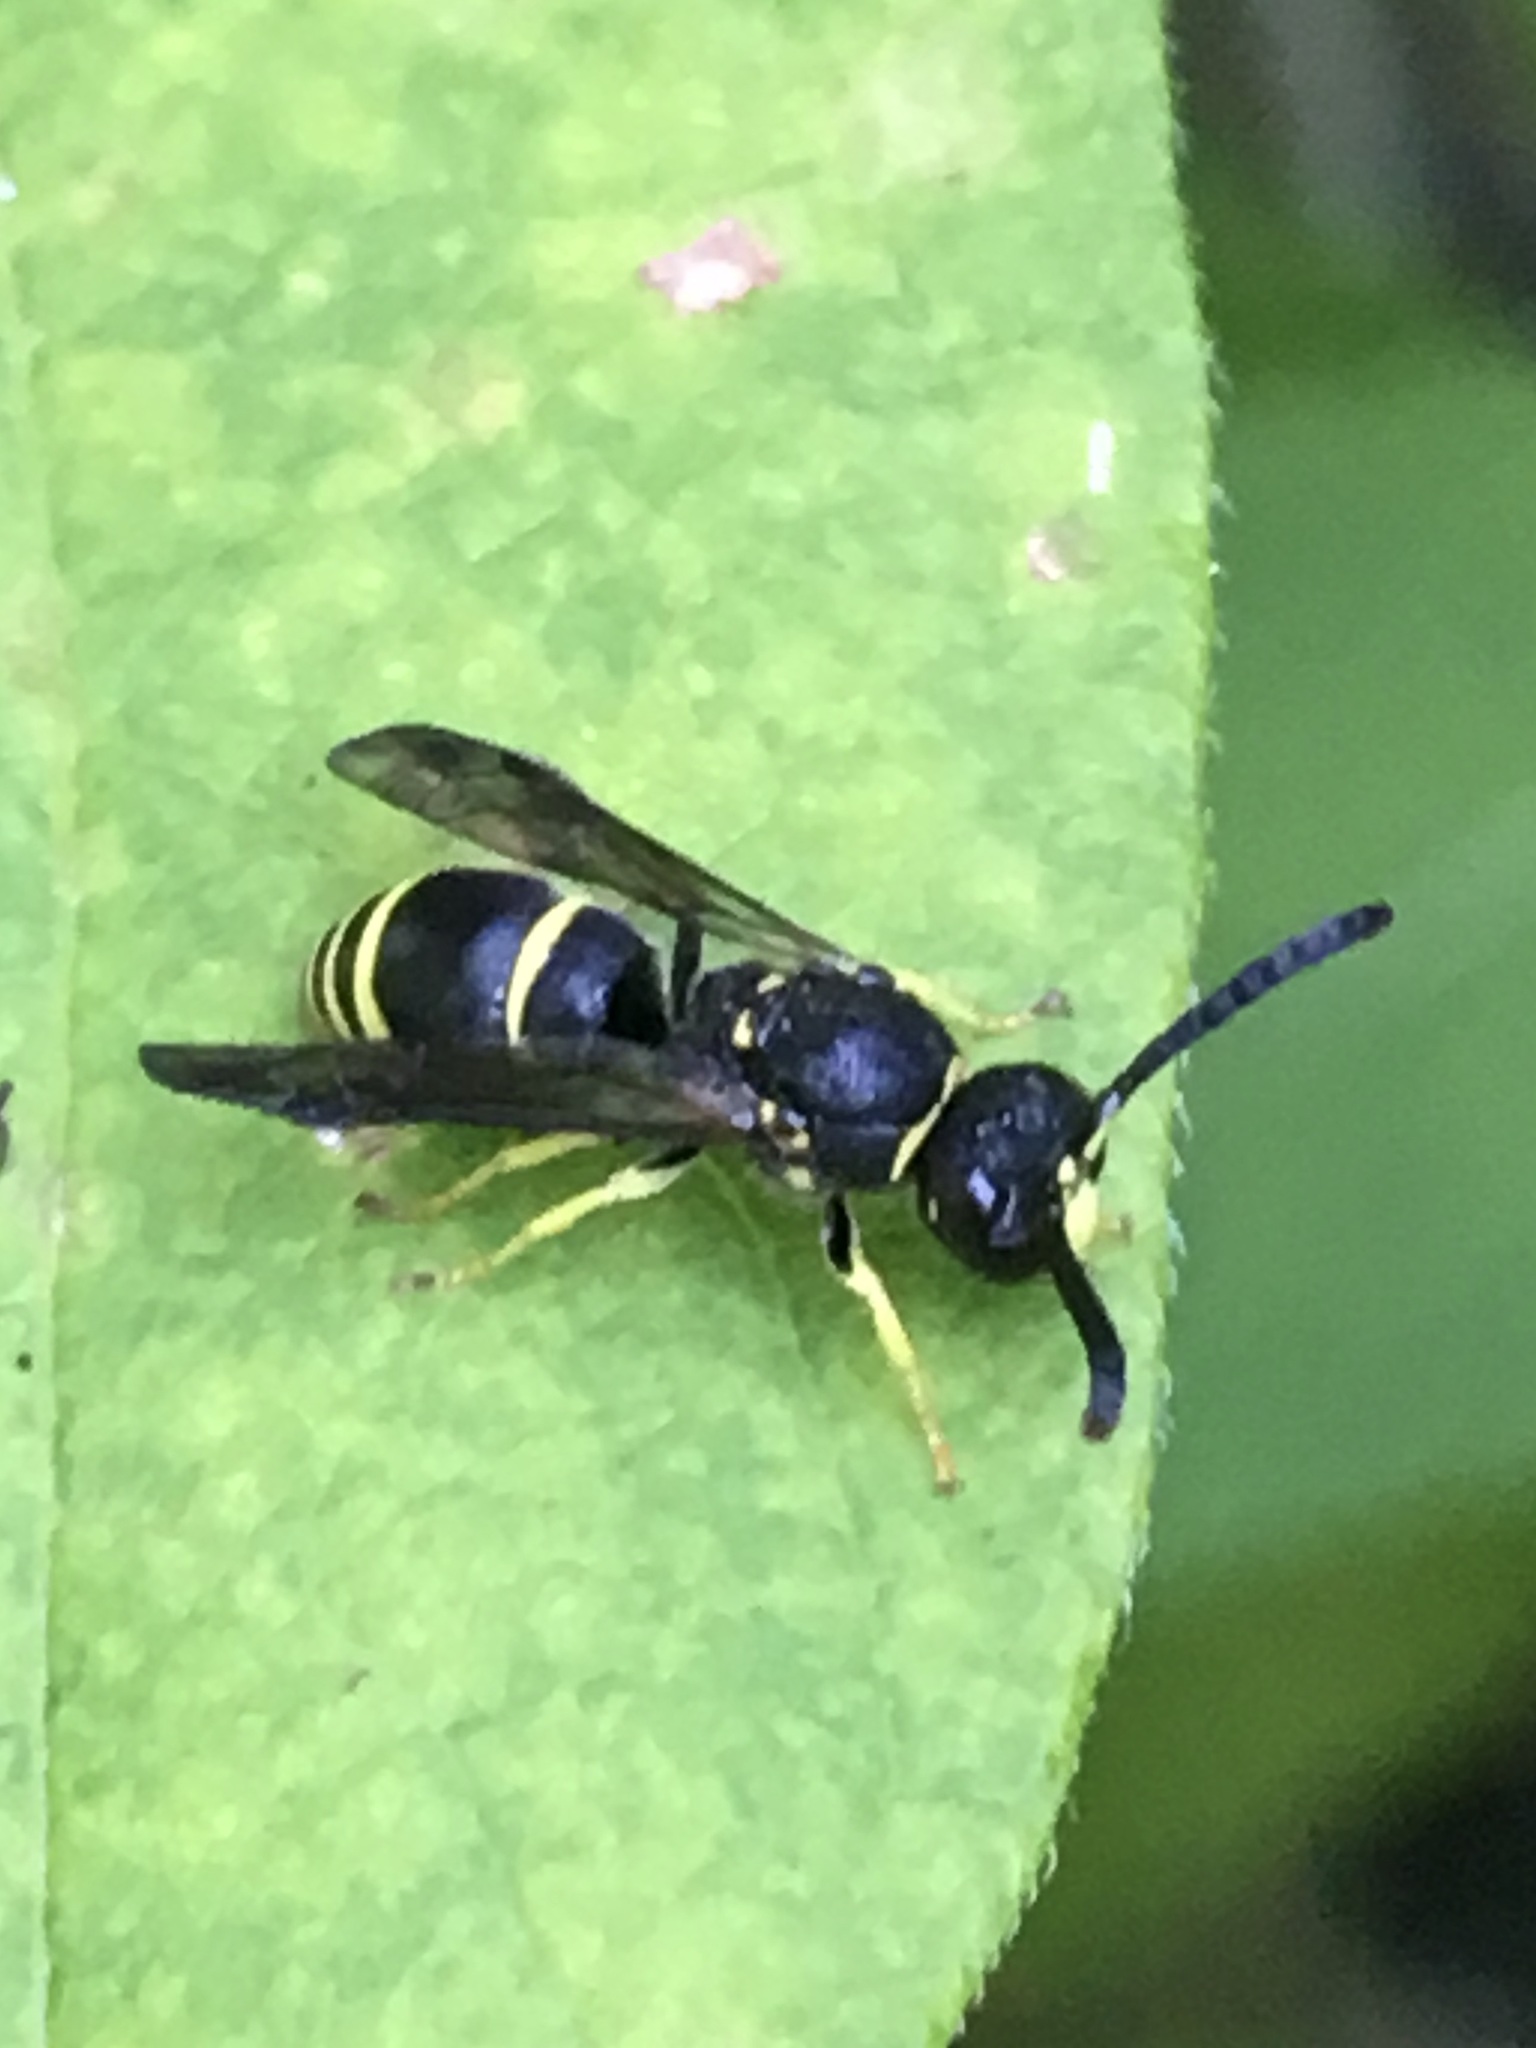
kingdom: Animalia
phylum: Arthropoda
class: Insecta
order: Hymenoptera
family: Vespidae
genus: Ancistrocerus
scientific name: Ancistrocerus adiabatus
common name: Bramble mason wasp
